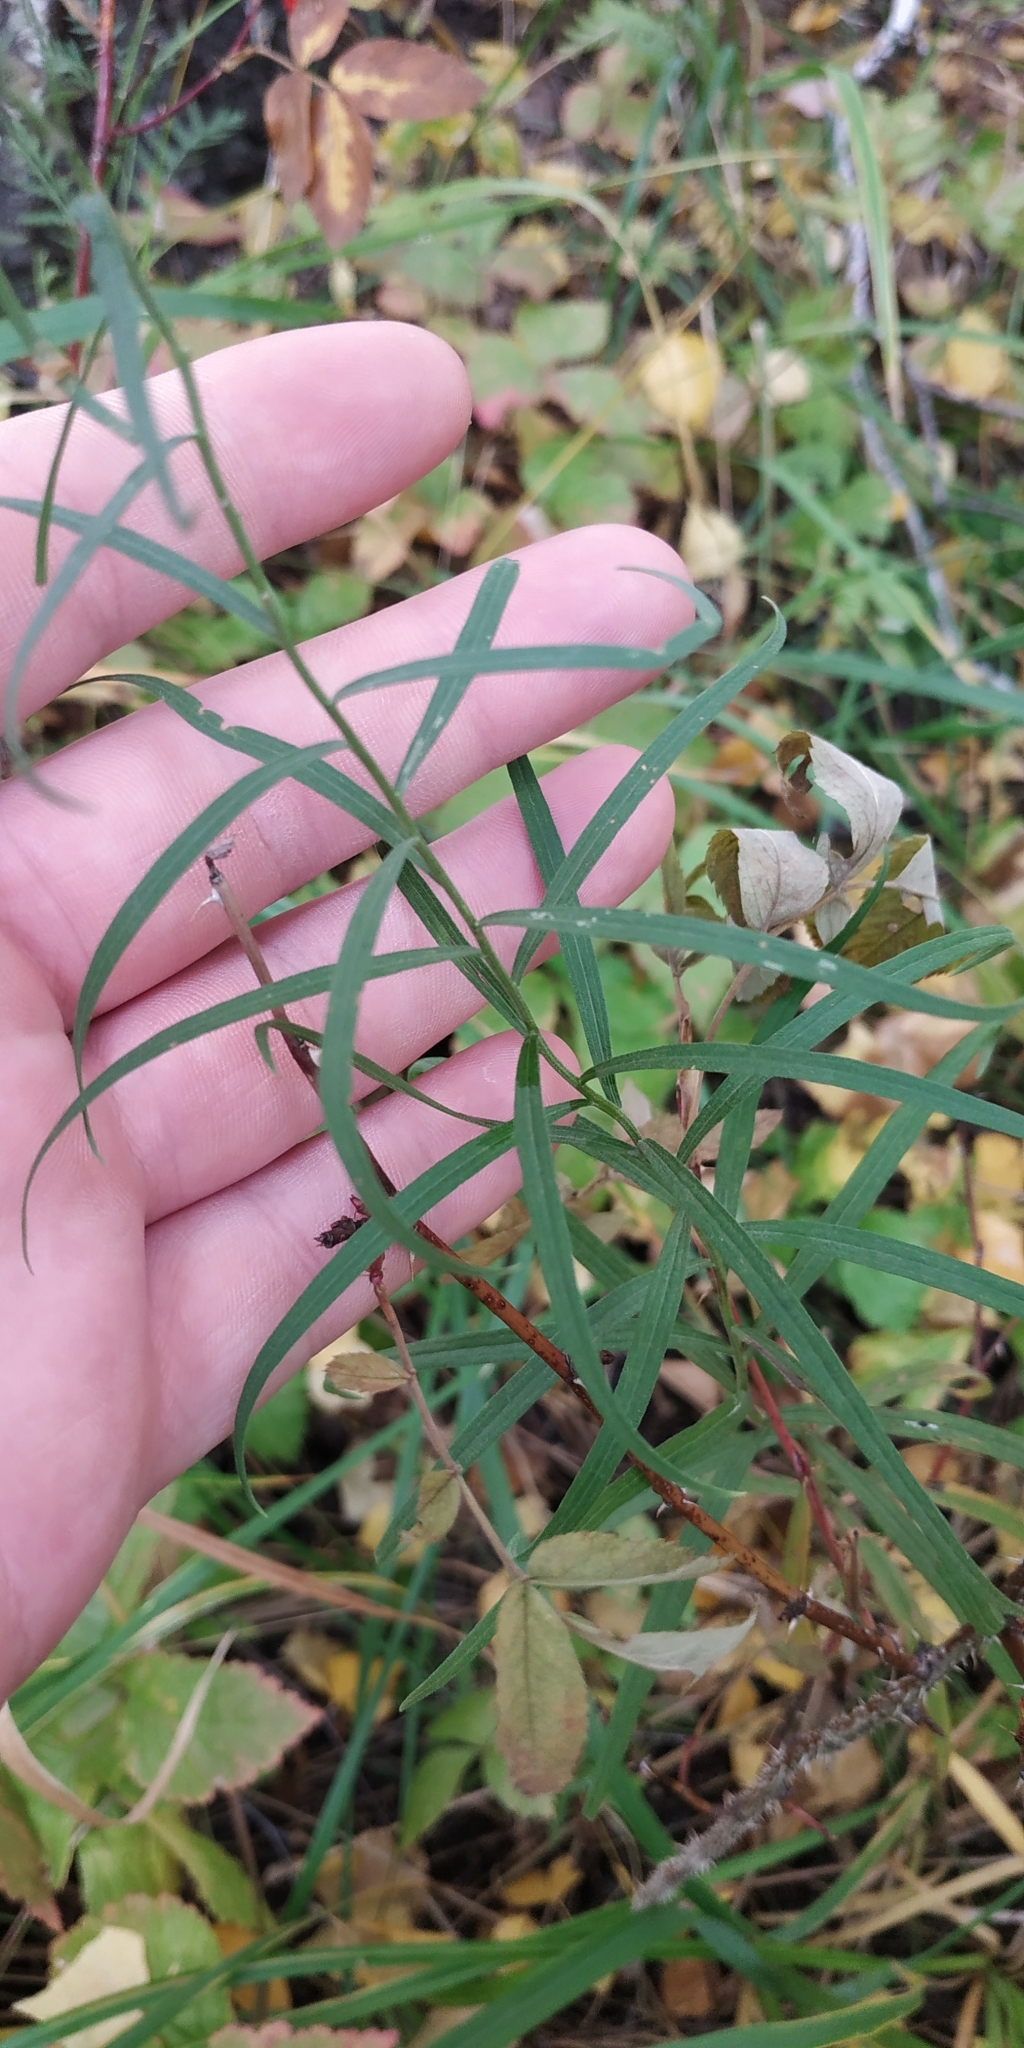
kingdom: Plantae
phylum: Tracheophyta
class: Magnoliopsida
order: Asterales
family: Asteraceae
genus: Galatella
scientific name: Galatella sedifolia
